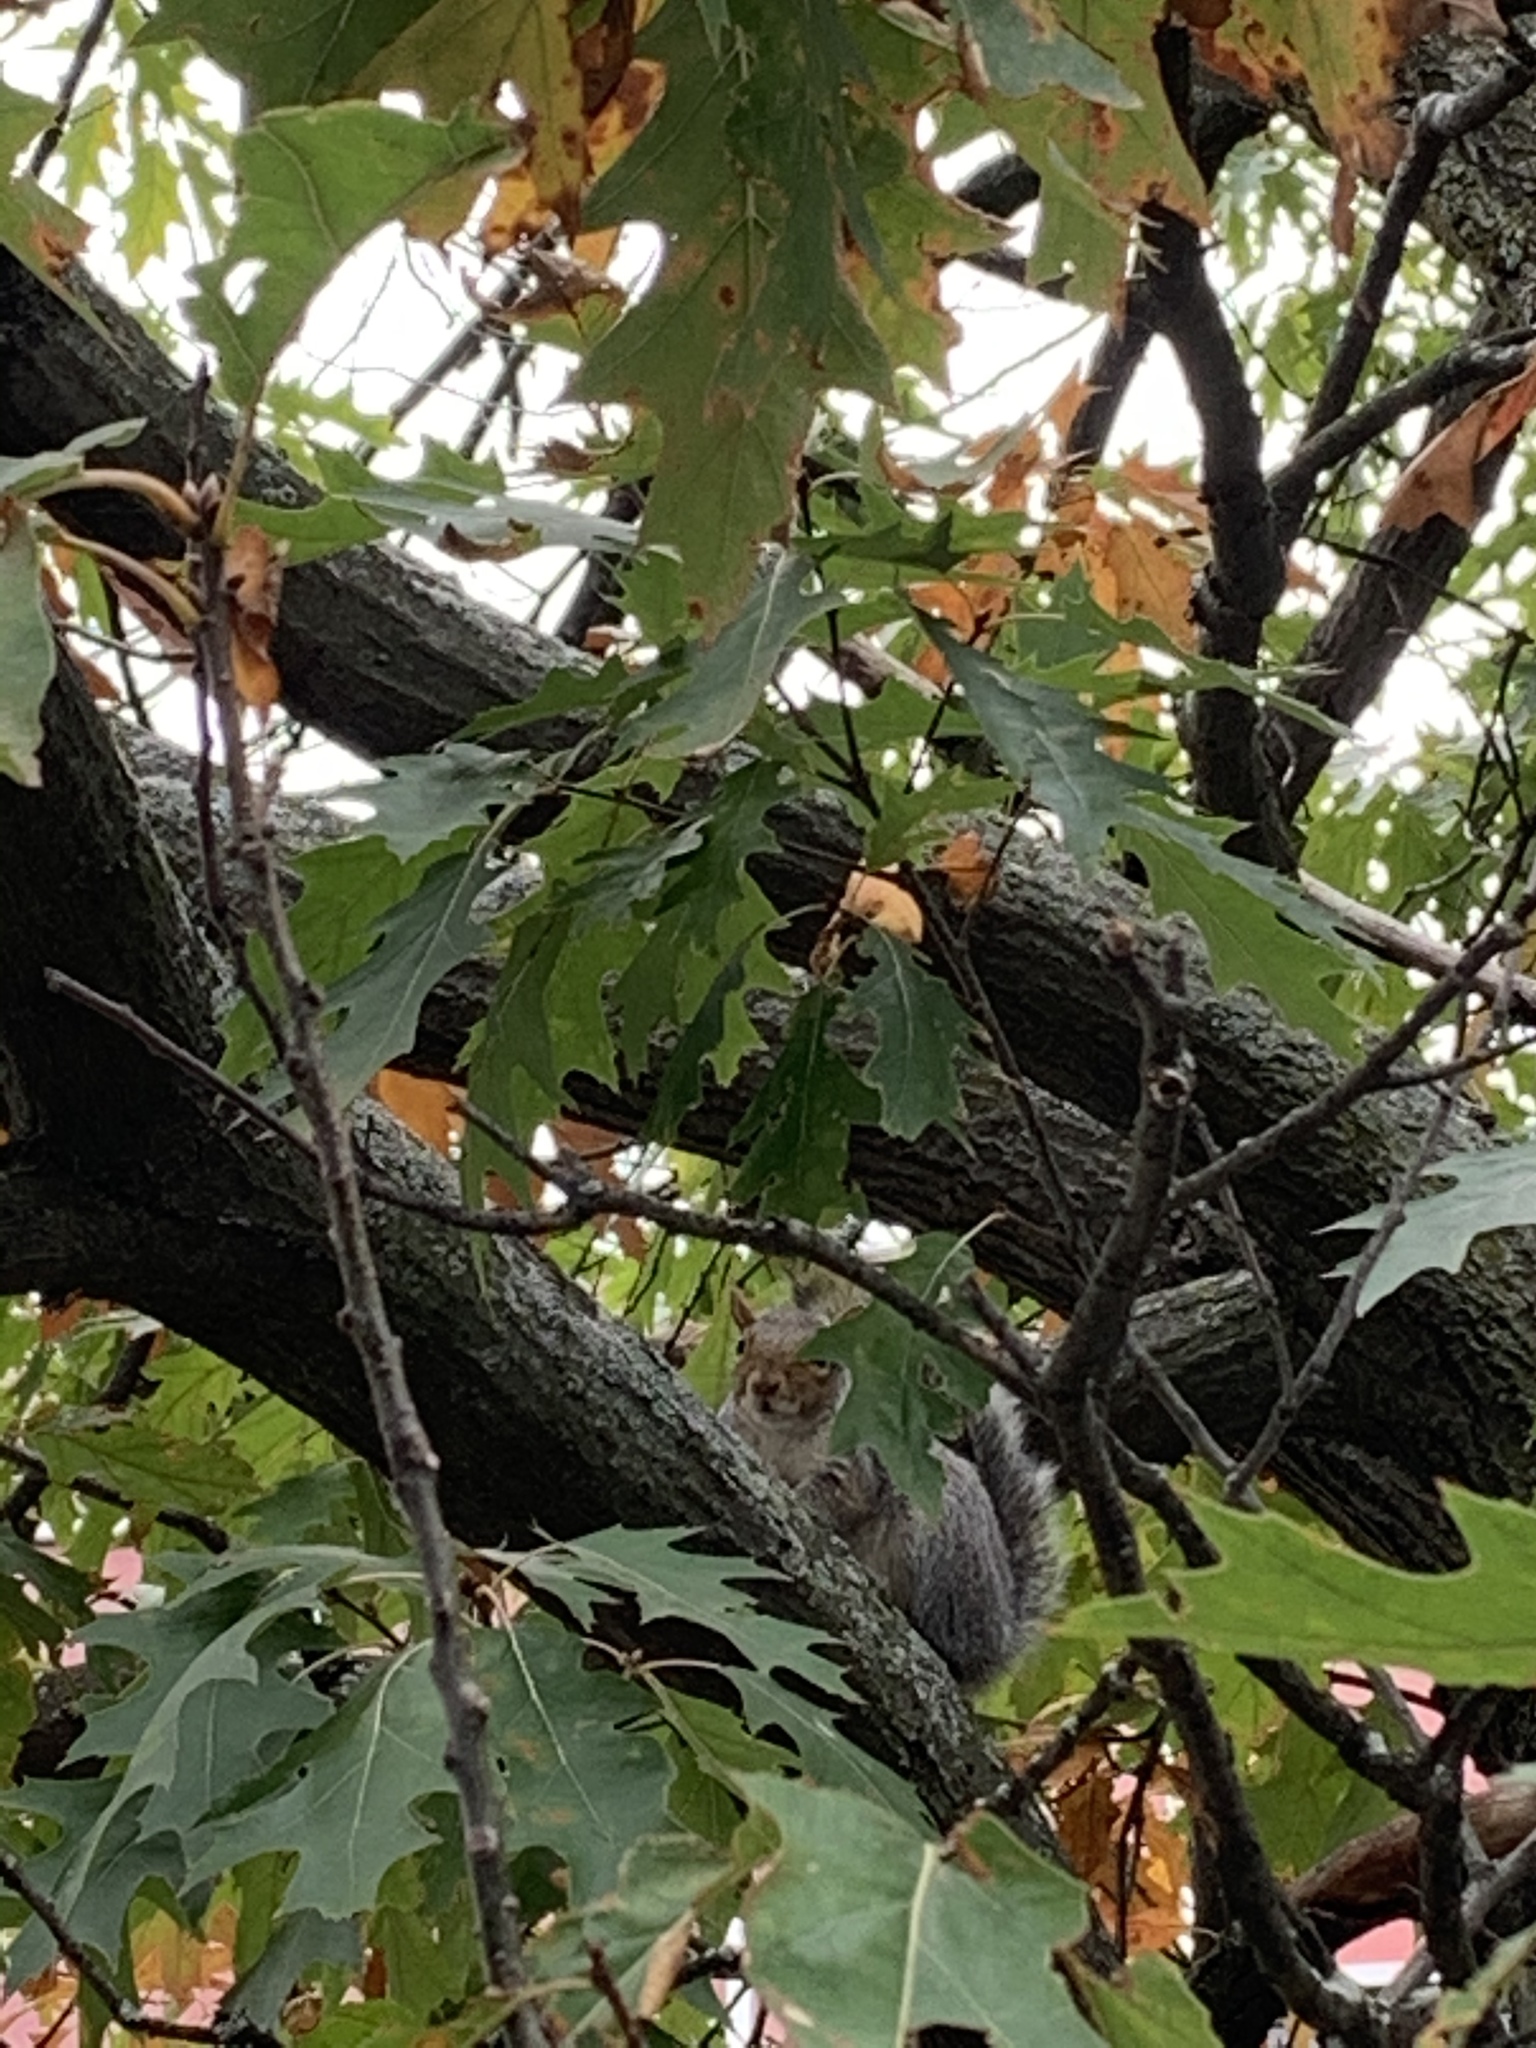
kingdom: Animalia
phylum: Chordata
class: Mammalia
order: Rodentia
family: Sciuridae
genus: Sciurus
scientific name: Sciurus carolinensis
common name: Eastern gray squirrel
